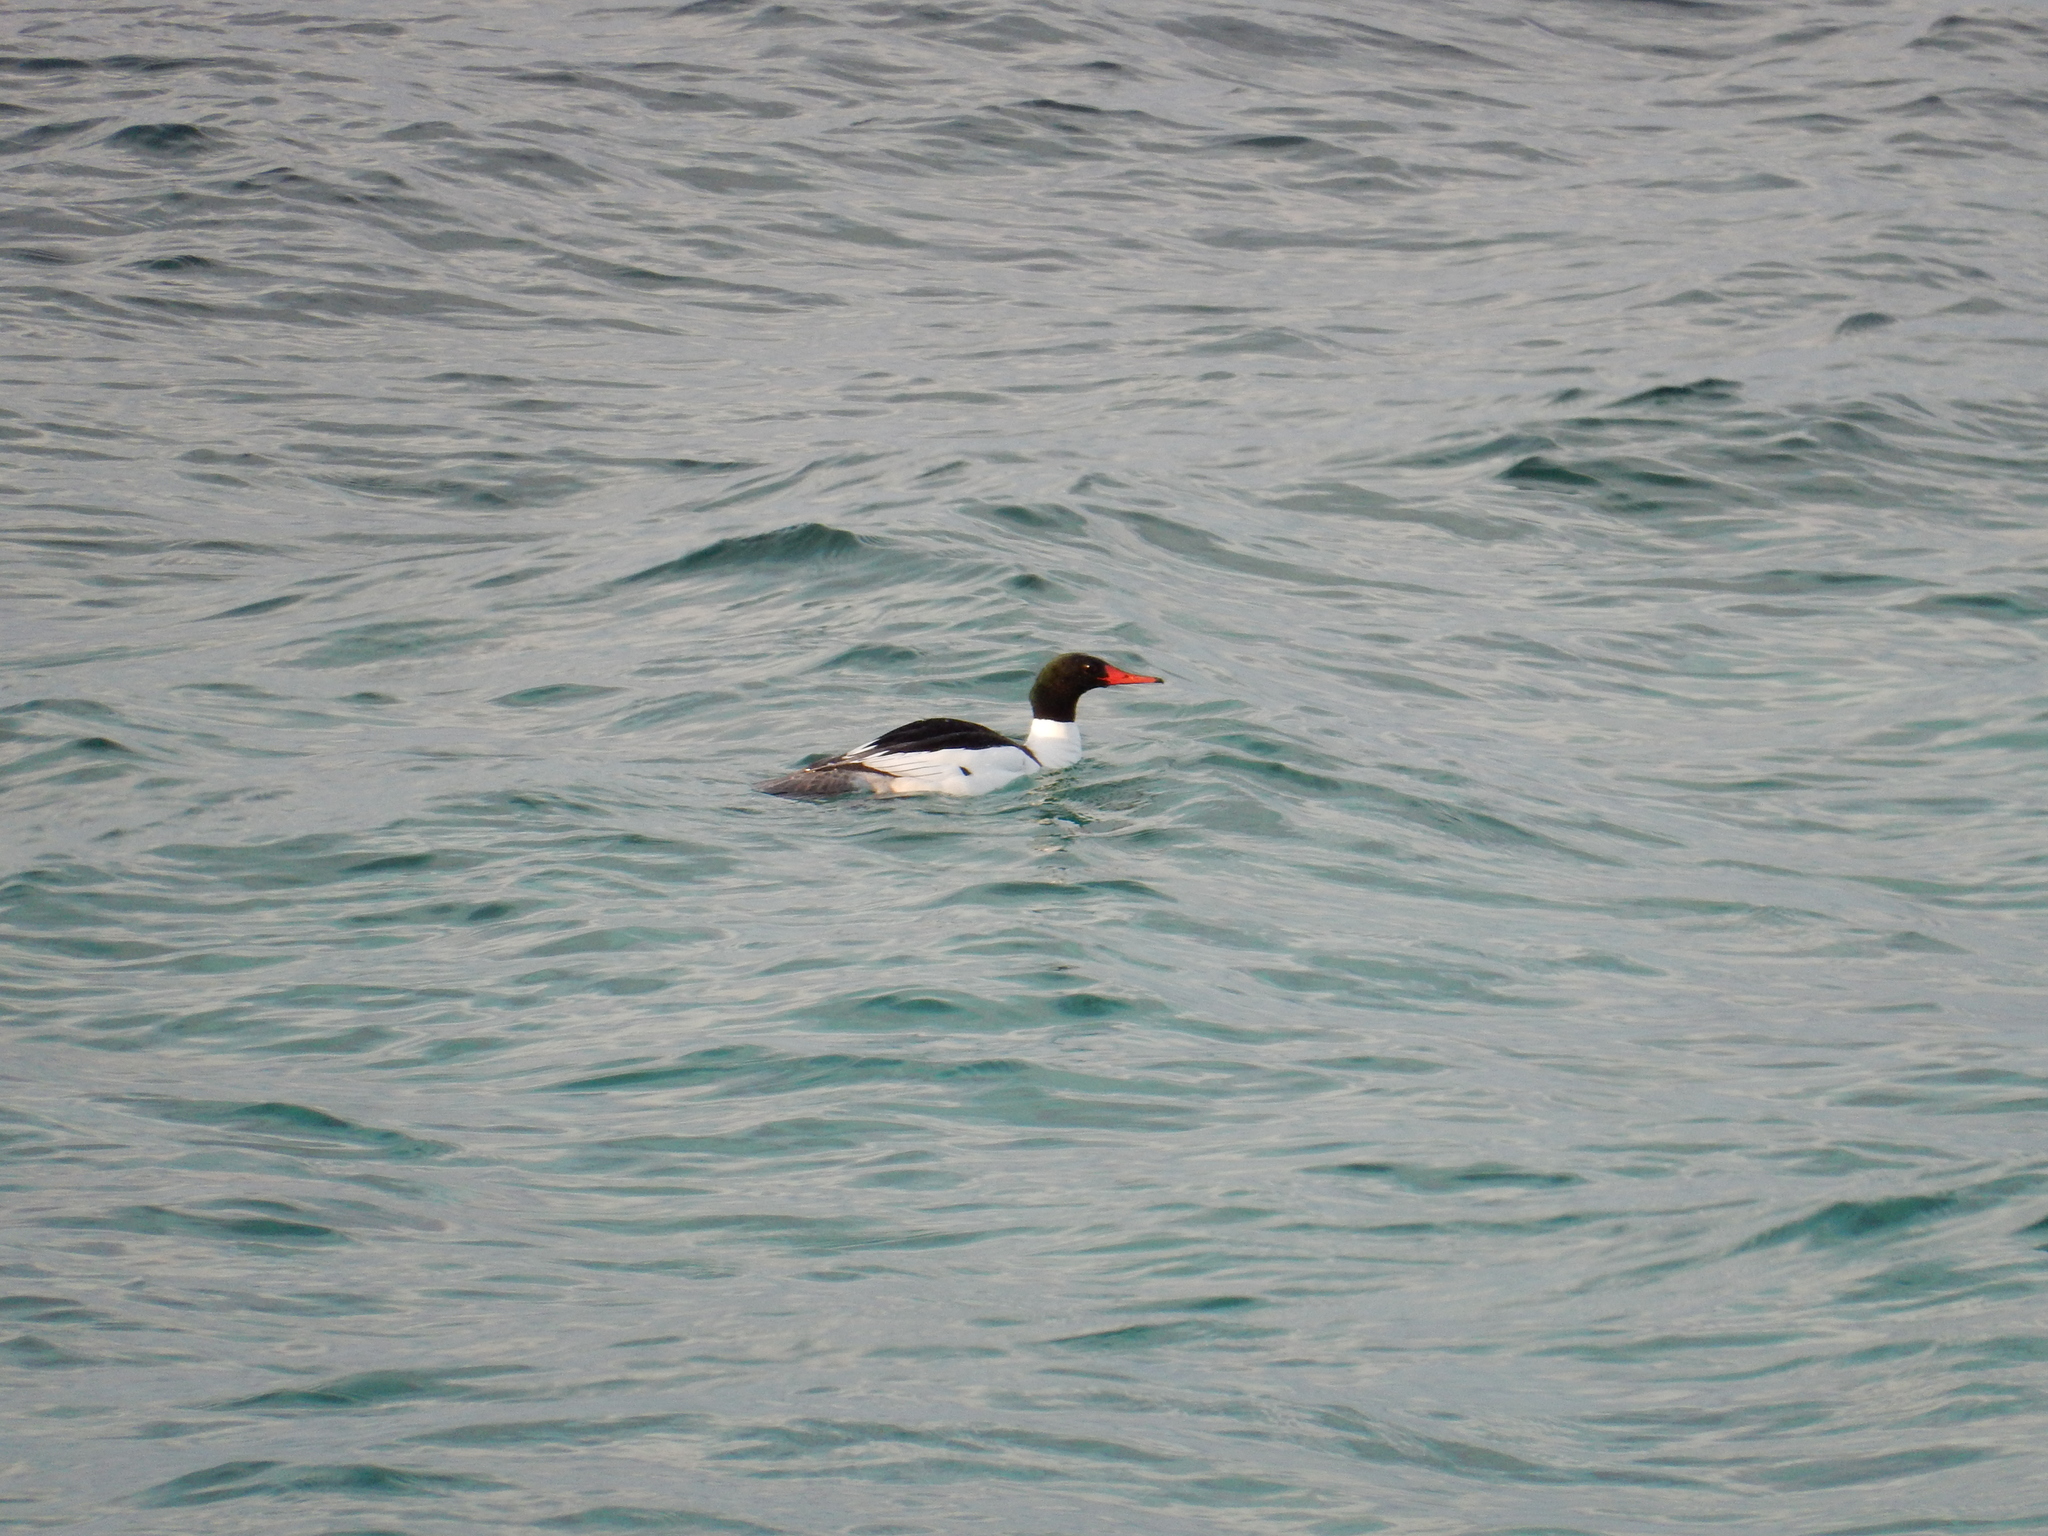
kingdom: Animalia
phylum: Chordata
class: Aves
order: Anseriformes
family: Anatidae
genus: Mergus
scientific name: Mergus merganser
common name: Common merganser
